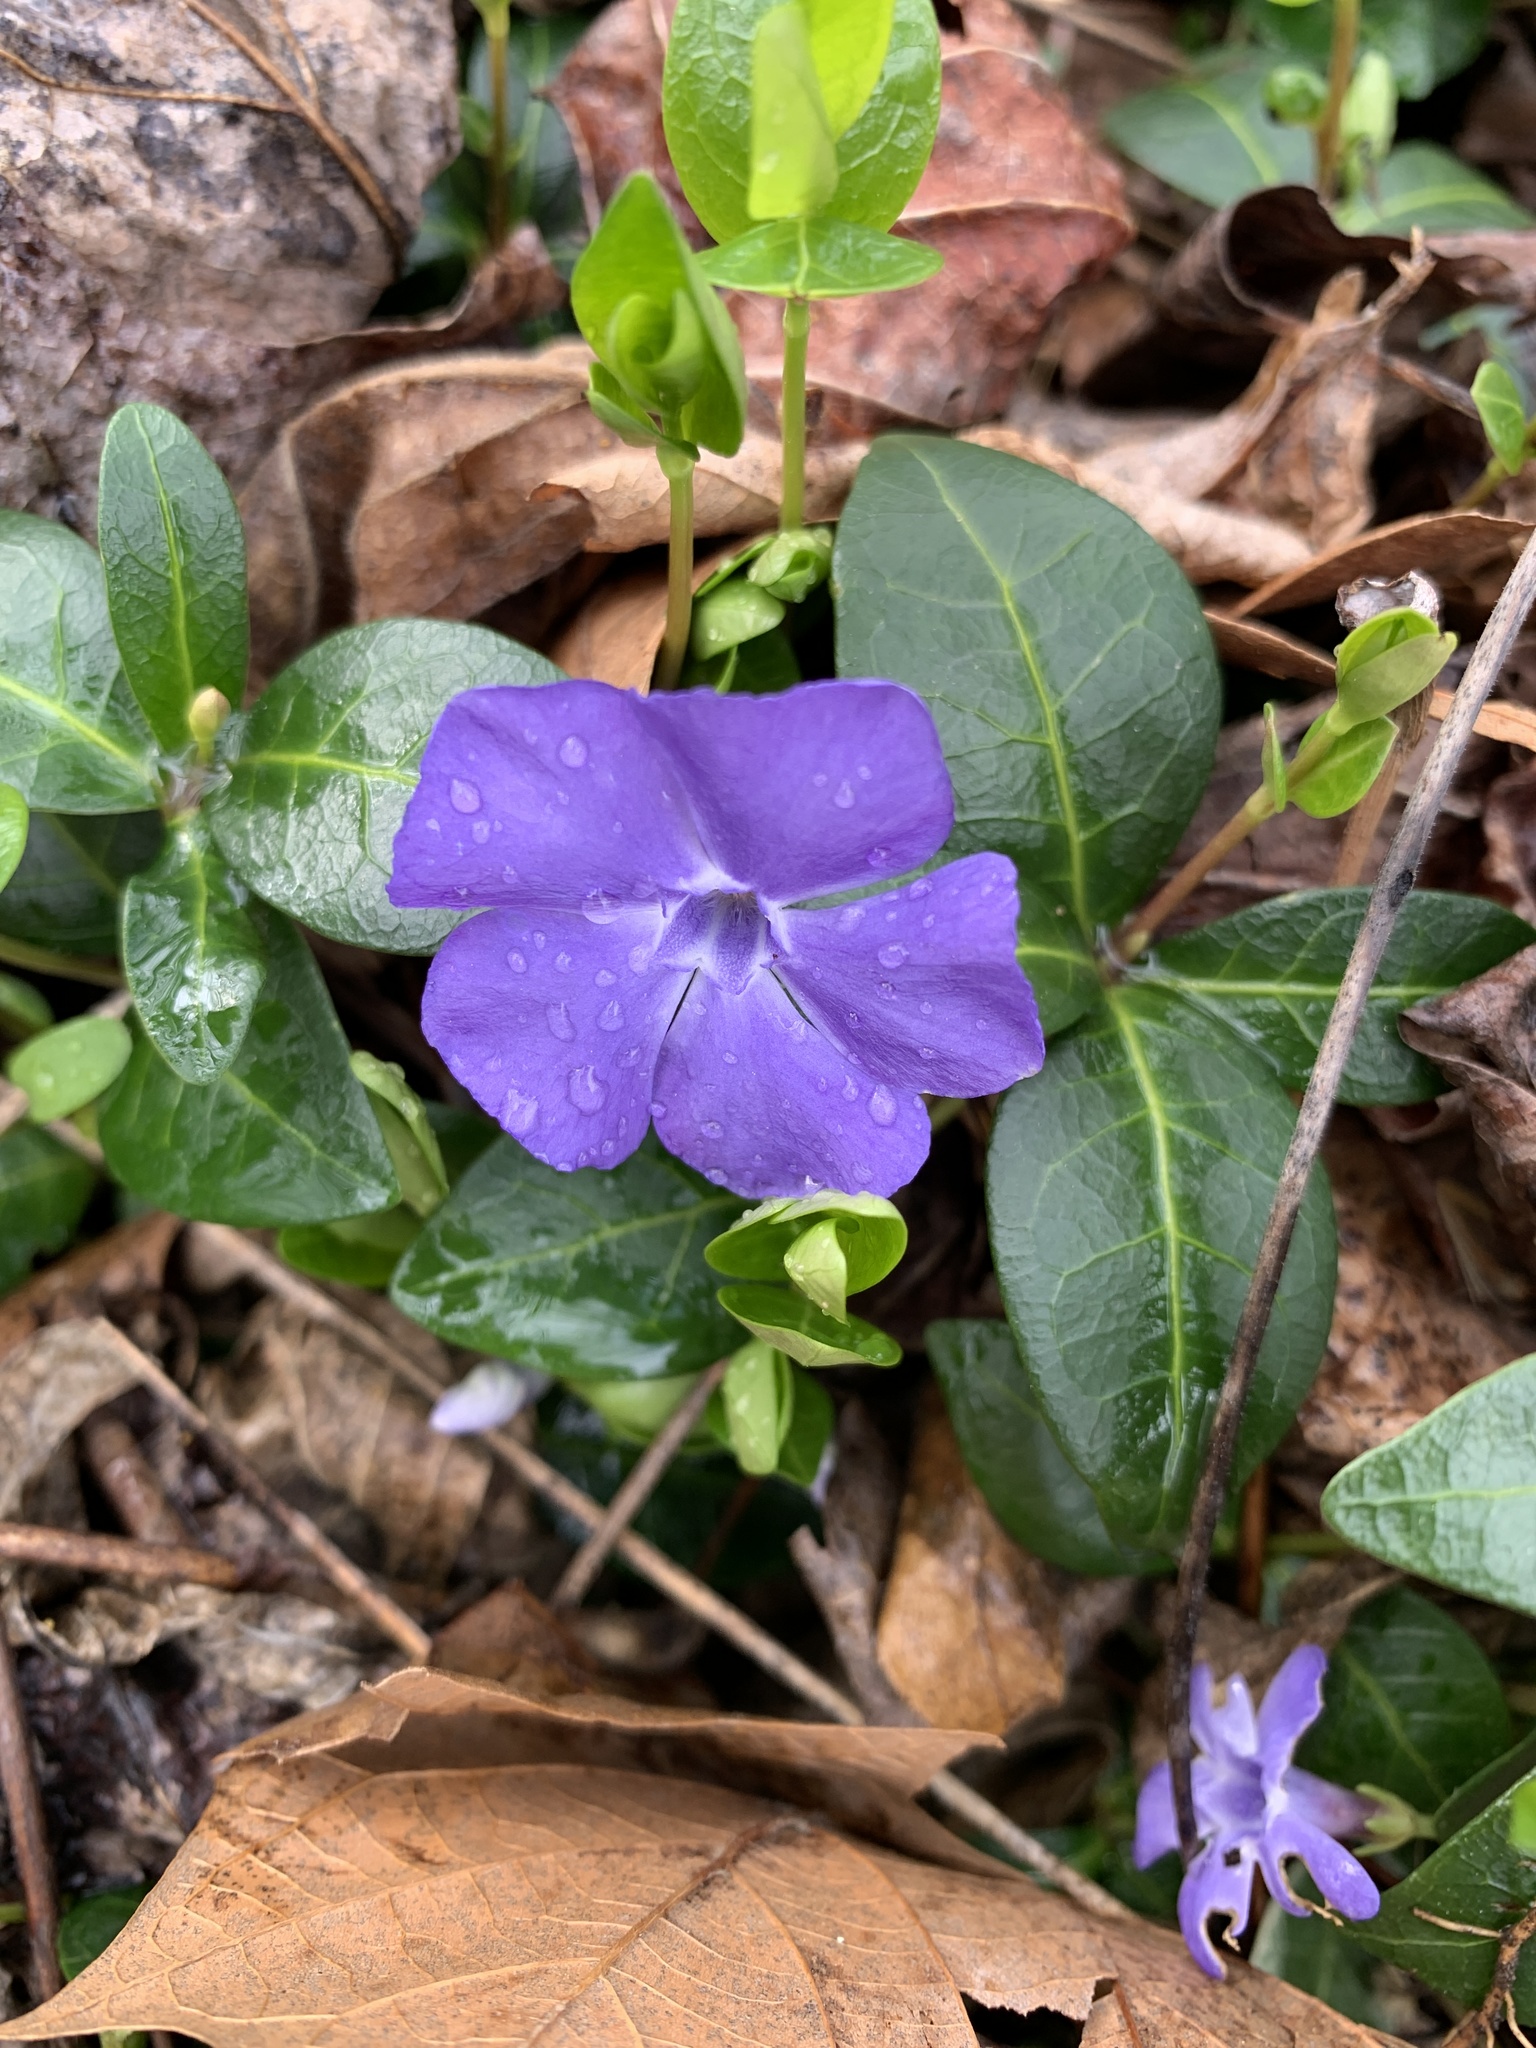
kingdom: Plantae
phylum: Tracheophyta
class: Magnoliopsida
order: Gentianales
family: Apocynaceae
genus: Vinca
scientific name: Vinca minor
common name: Lesser periwinkle
